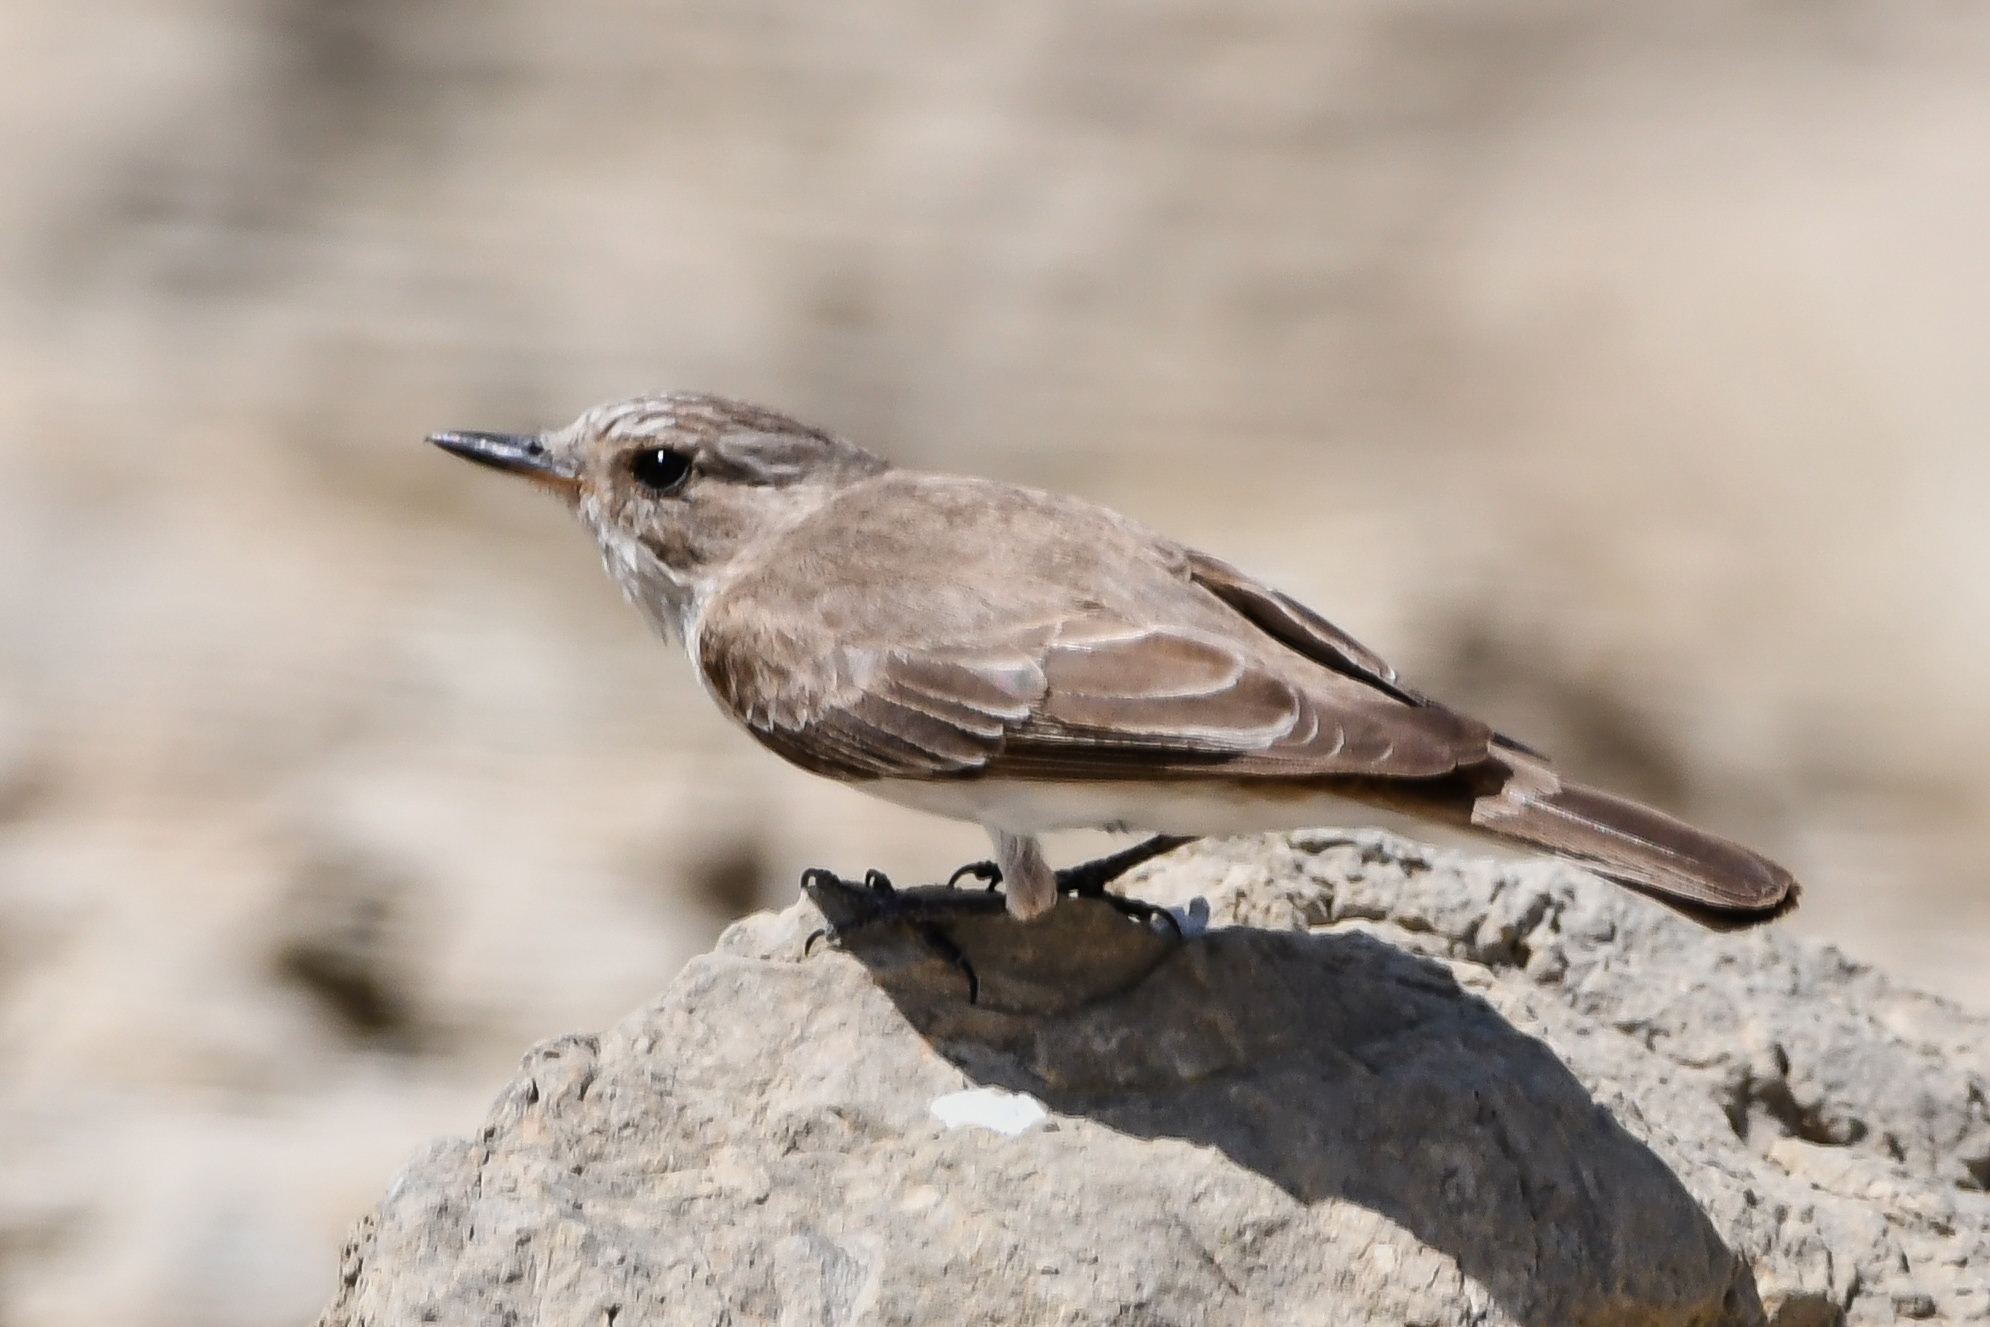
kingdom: Animalia
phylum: Chordata
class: Aves
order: Passeriformes
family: Muscicapidae
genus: Muscicapa
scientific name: Muscicapa striata
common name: Spotted flycatcher
